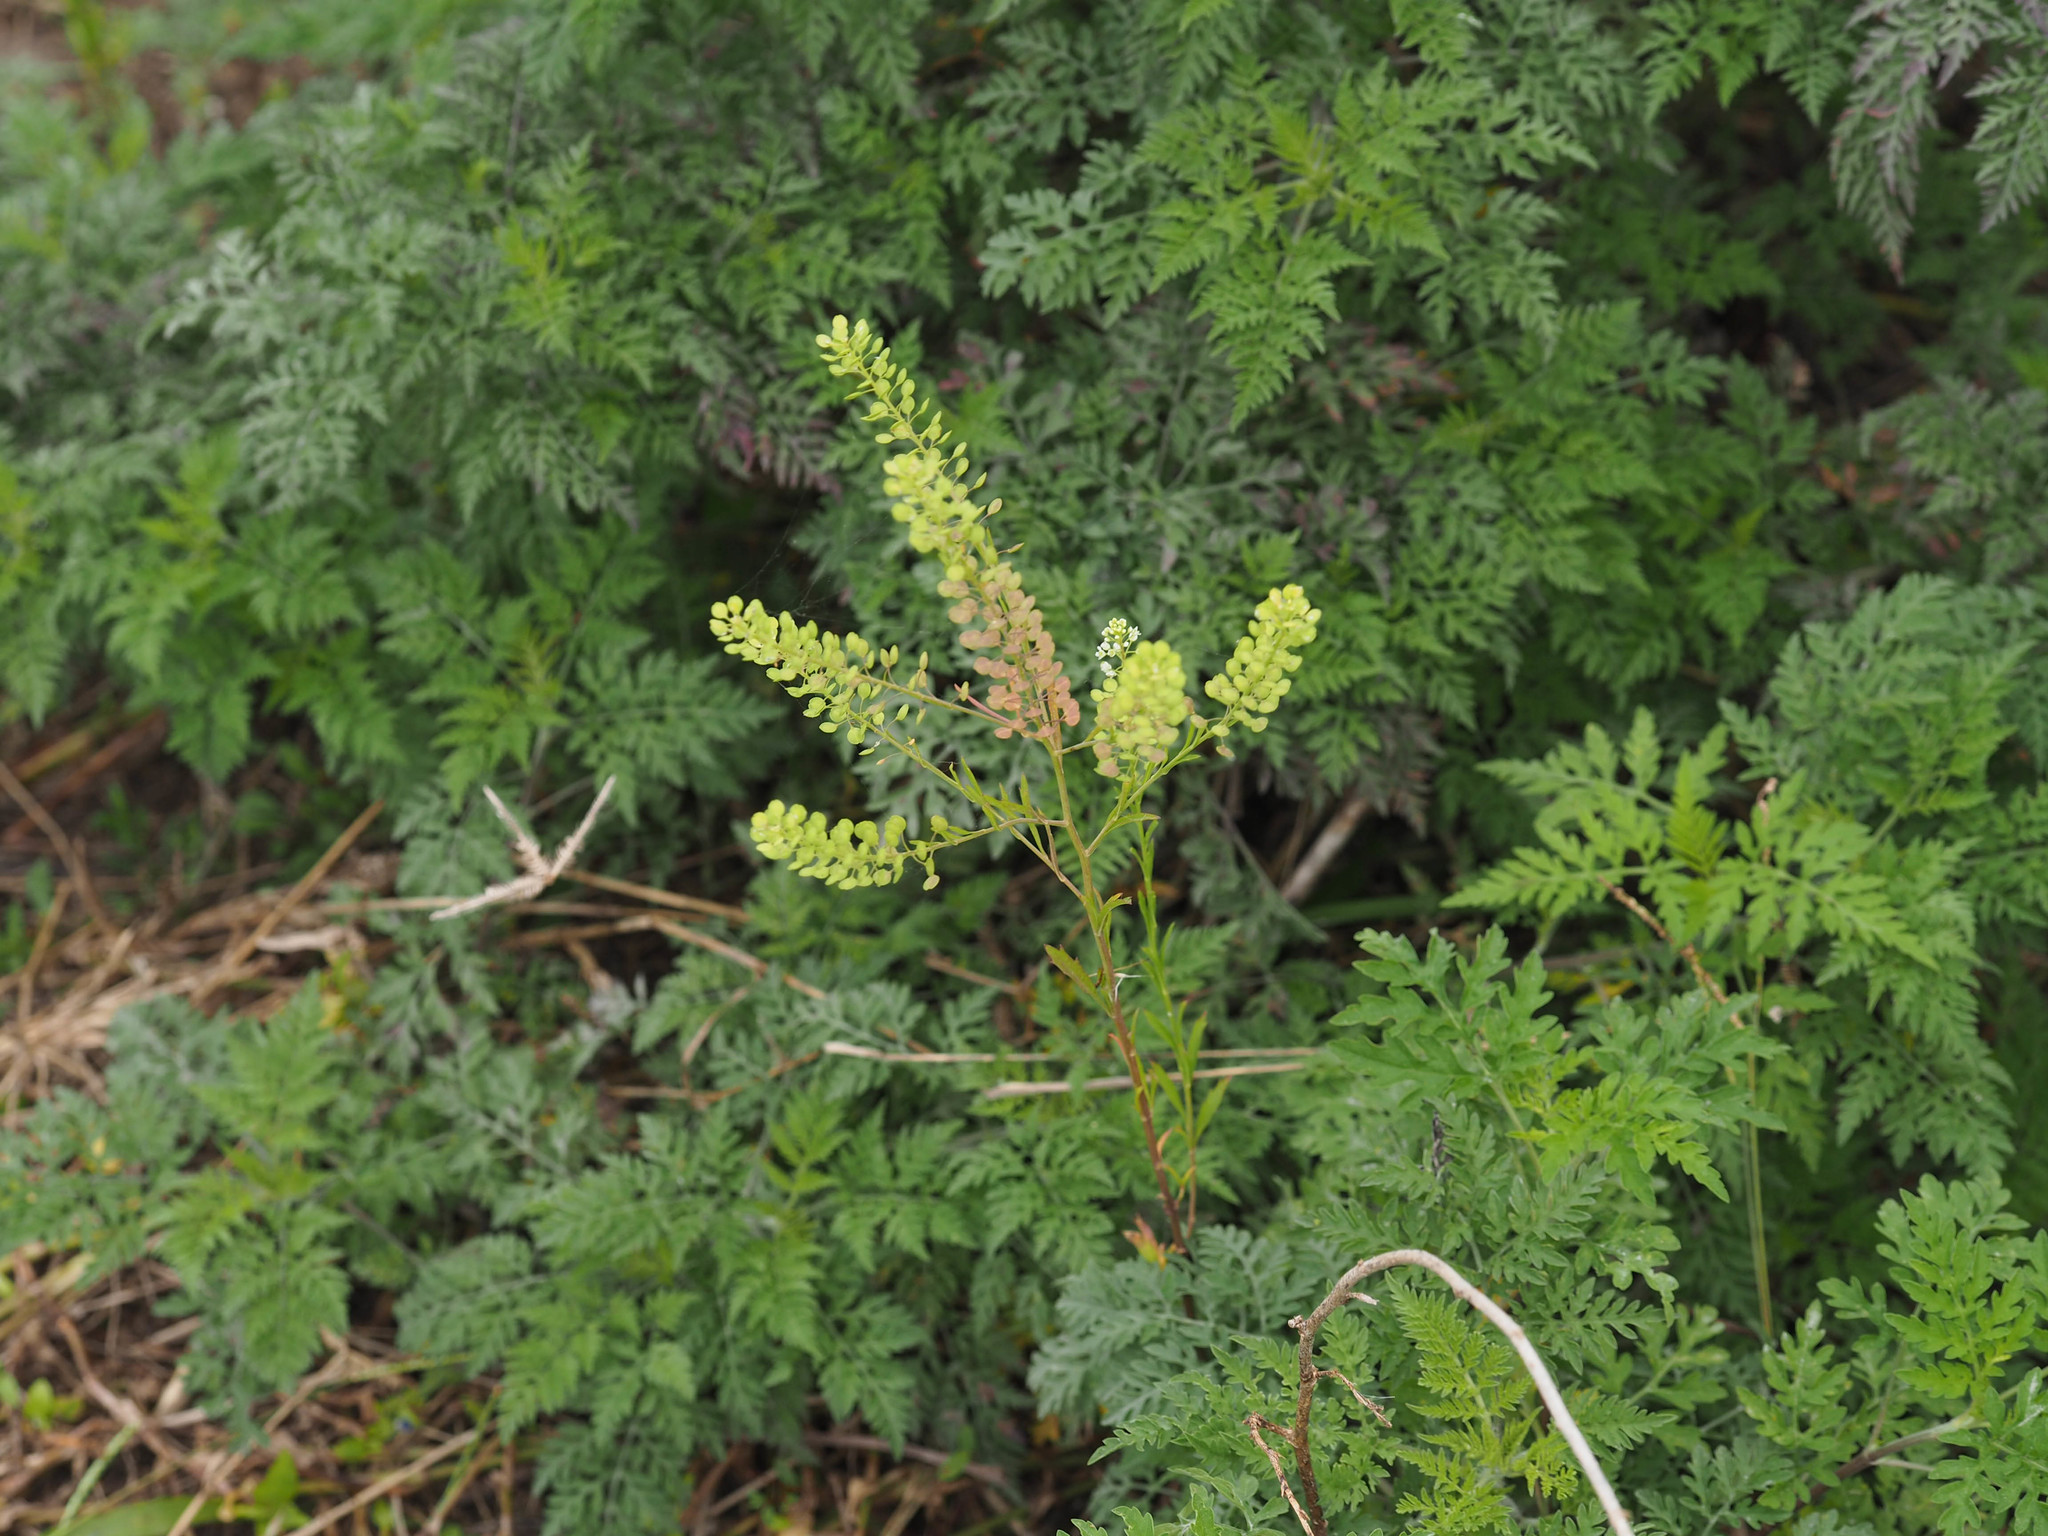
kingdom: Plantae
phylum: Tracheophyta
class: Magnoliopsida
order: Asterales
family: Asteraceae
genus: Ambrosia
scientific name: Ambrosia artemisiifolia
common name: Annual ragweed
